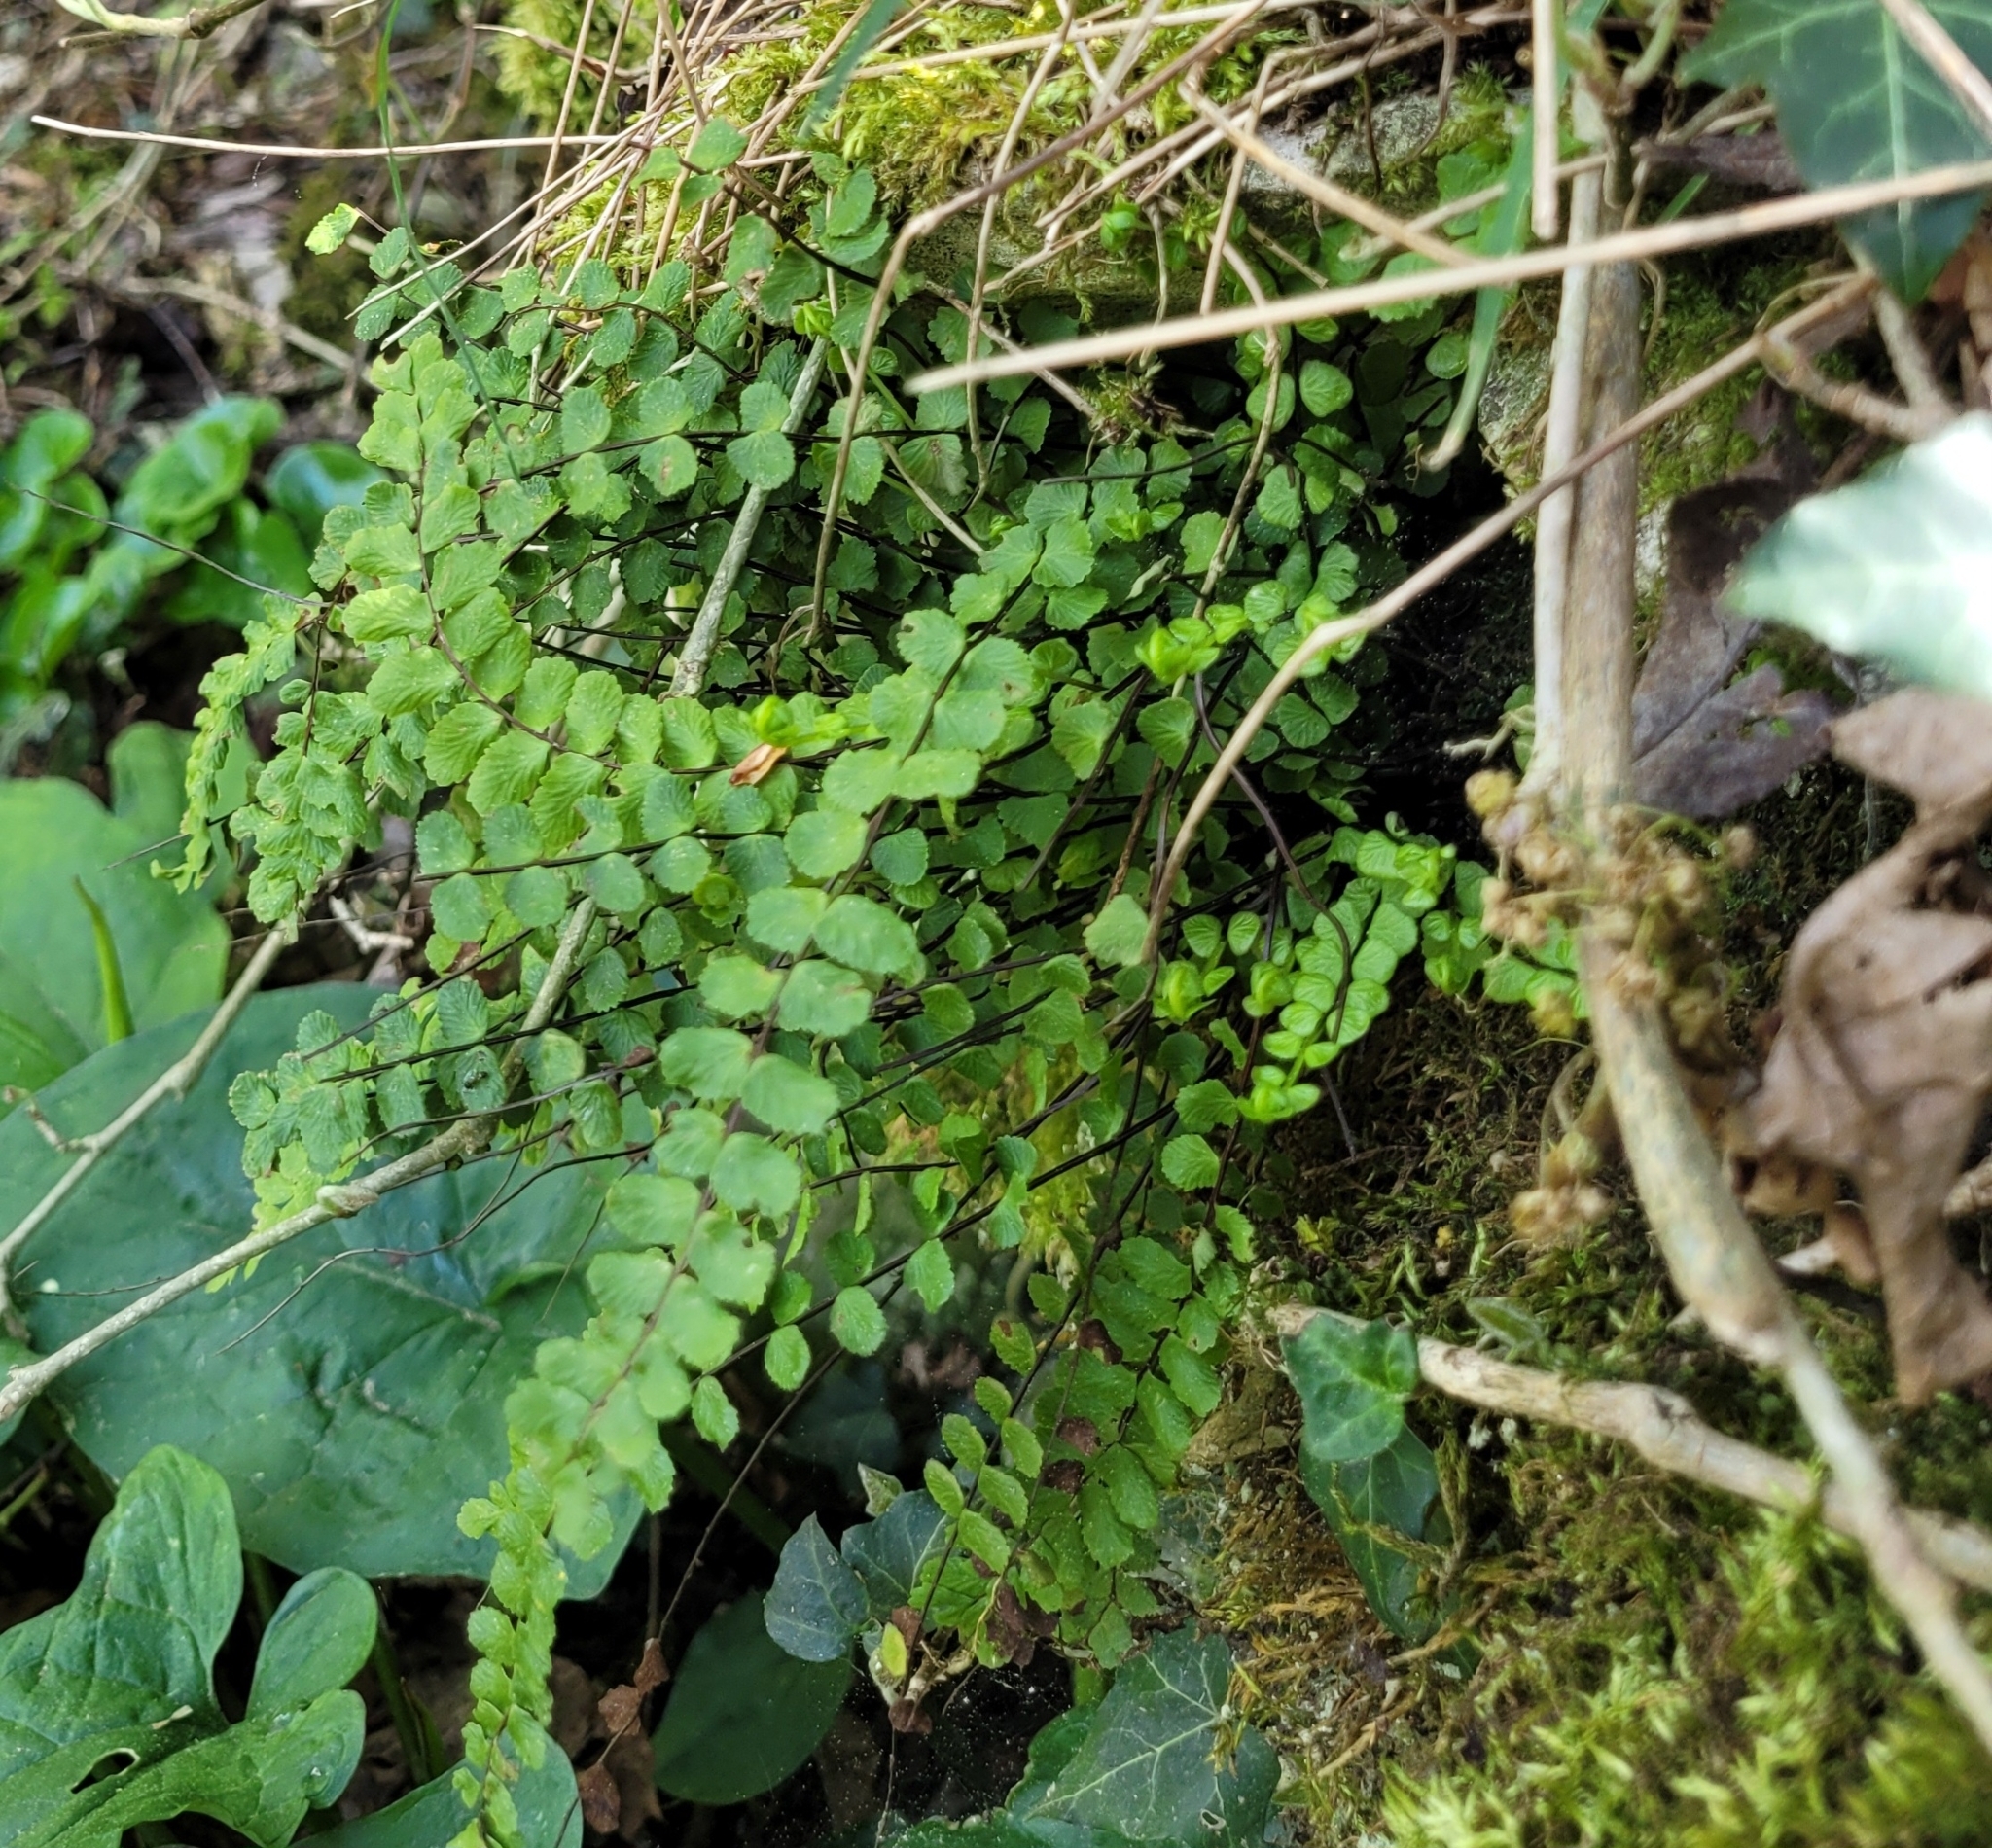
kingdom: Plantae
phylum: Tracheophyta
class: Polypodiopsida
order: Polypodiales
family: Aspleniaceae
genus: Asplenium
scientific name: Asplenium trichomanes
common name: Maidenhair spleenwort
